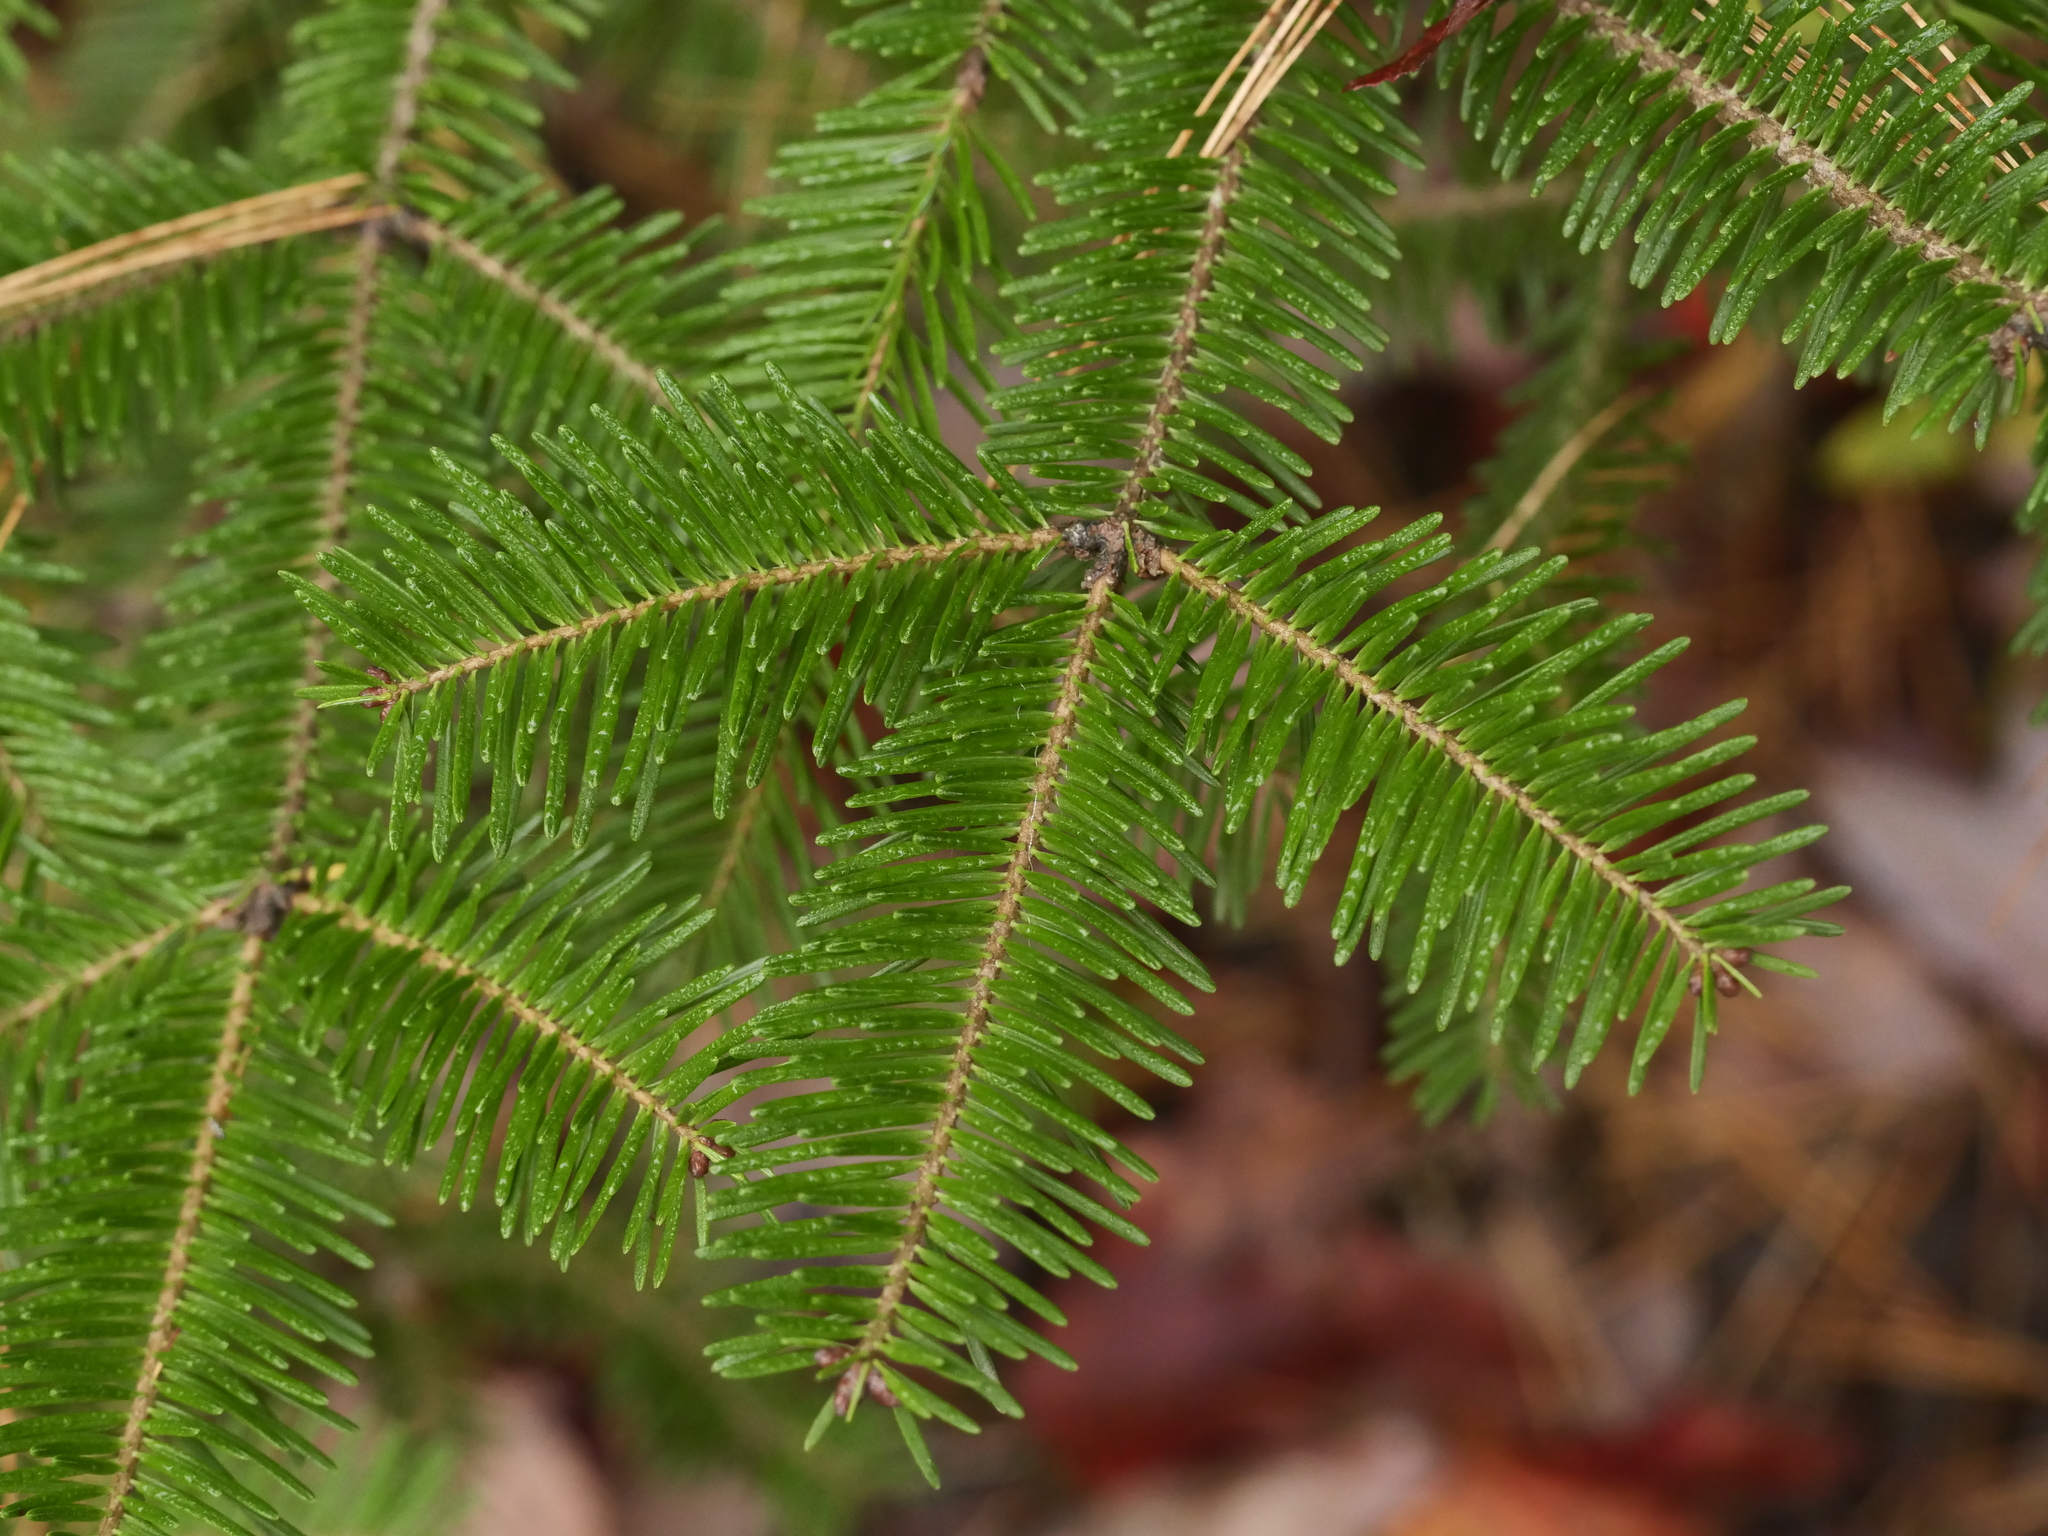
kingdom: Plantae
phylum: Tracheophyta
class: Pinopsida
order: Pinales
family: Pinaceae
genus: Abies
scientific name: Abies balsamea
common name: Balsam fir
